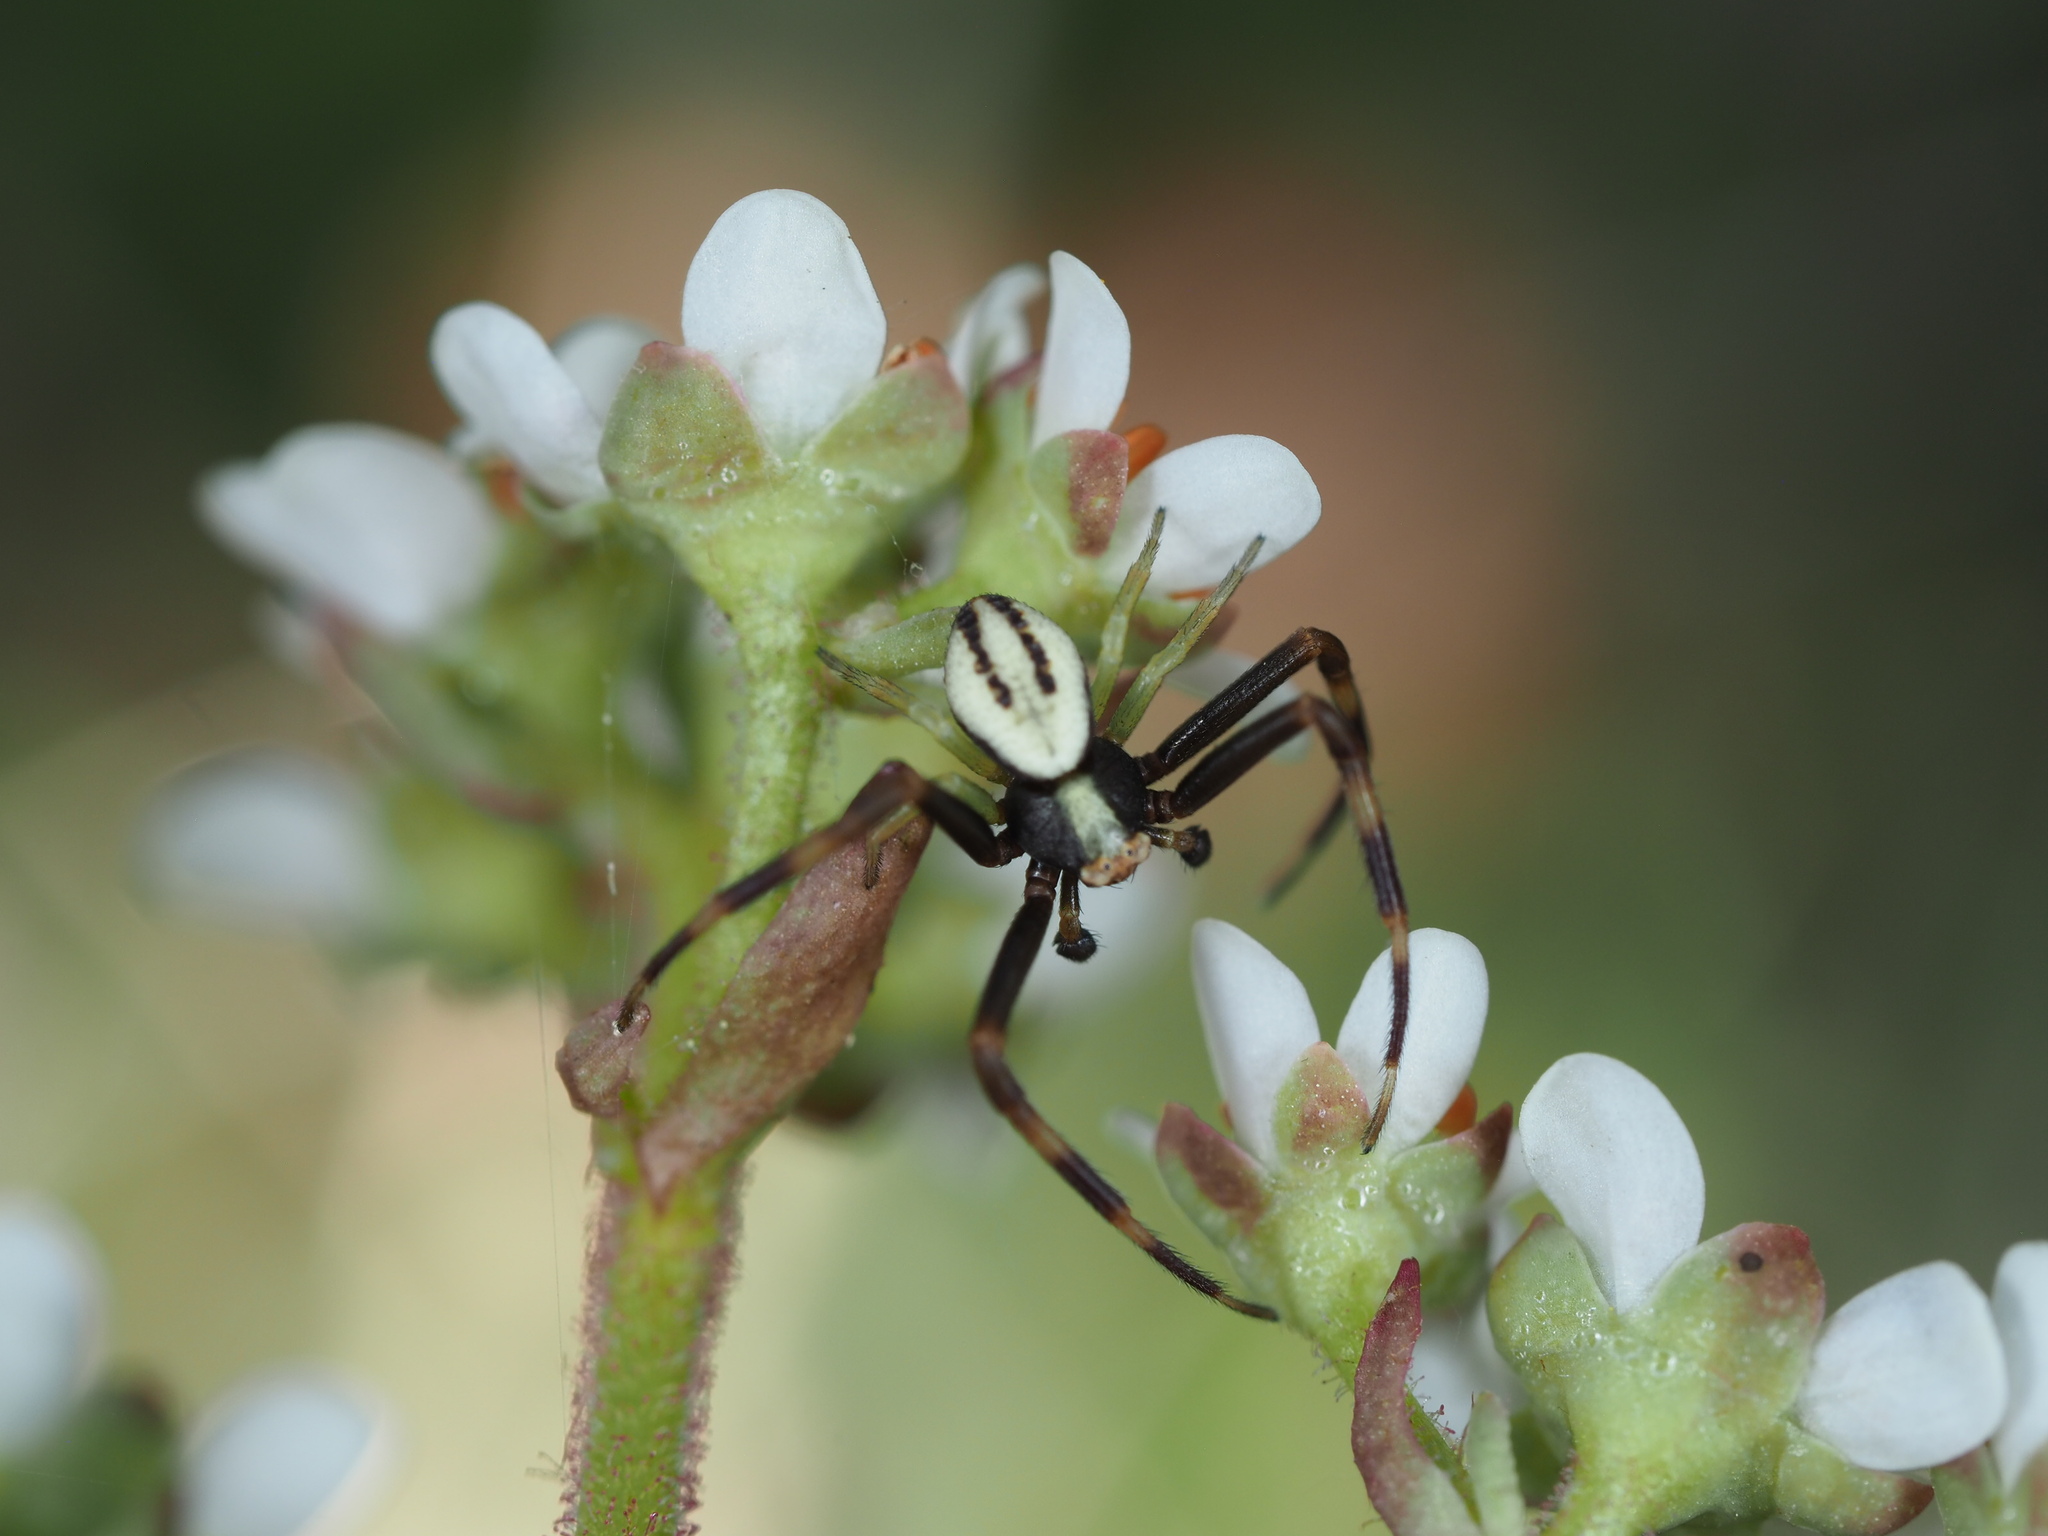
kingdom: Animalia
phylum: Arthropoda
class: Arachnida
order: Araneae
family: Thomisidae
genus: Misumena
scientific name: Misumena vatia
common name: Goldenrod crab spider
